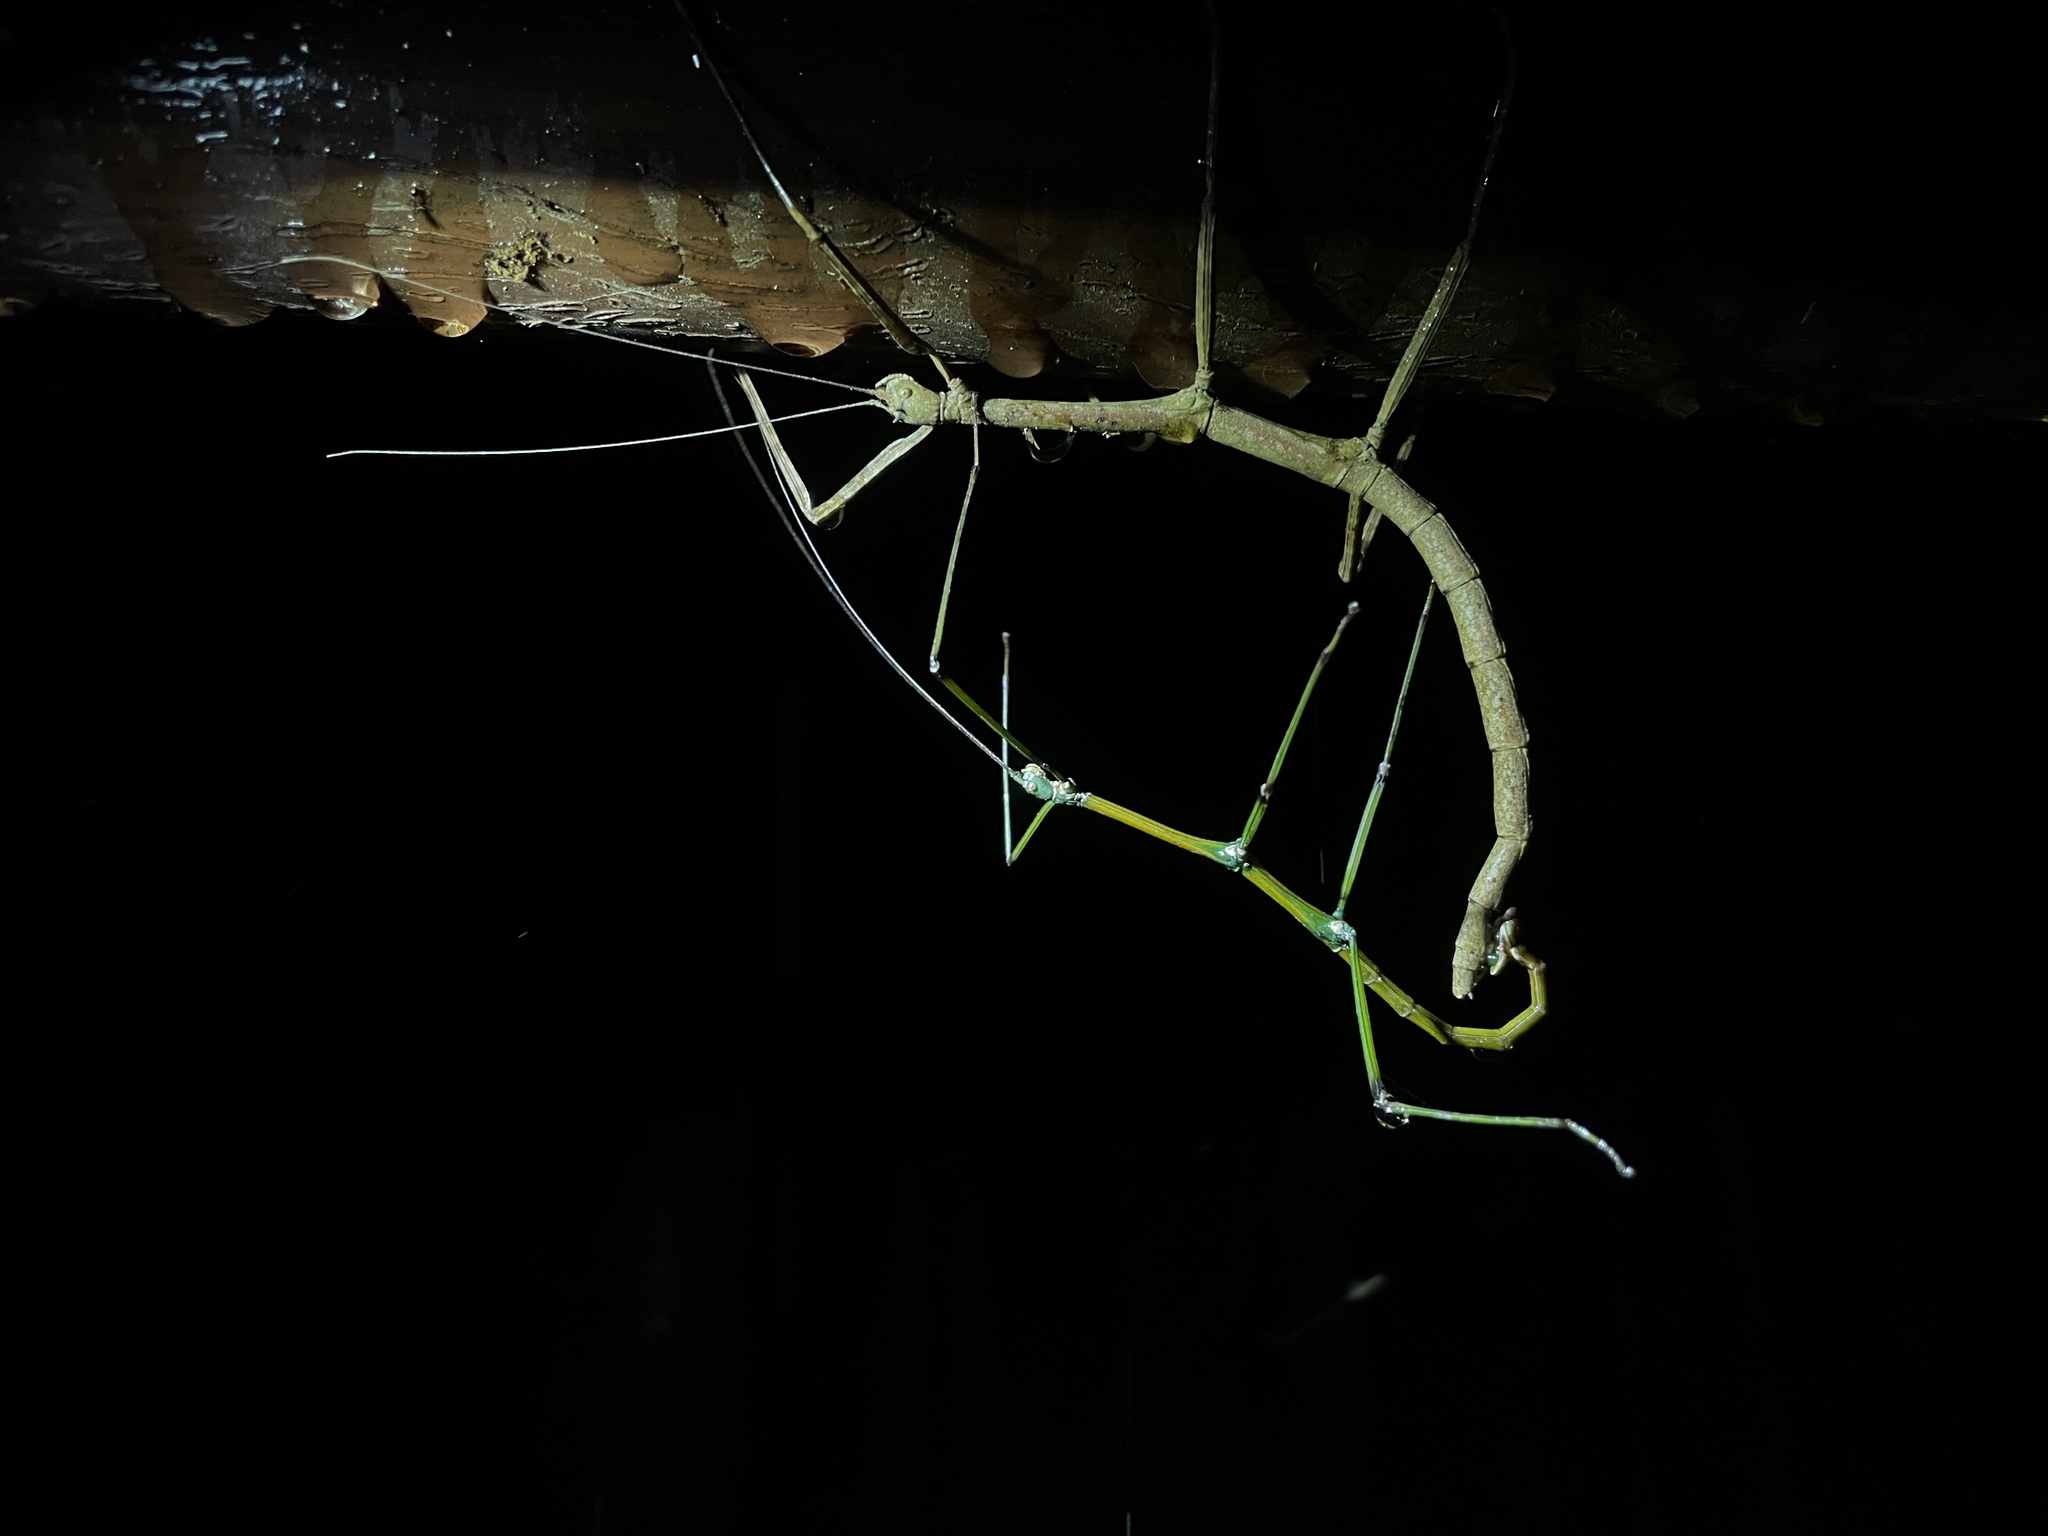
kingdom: Animalia
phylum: Arthropoda
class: Insecta
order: Phasmida
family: Lonchodidae
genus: Phraortes
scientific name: Phraortes stomphax
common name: Hong kong stick insect
